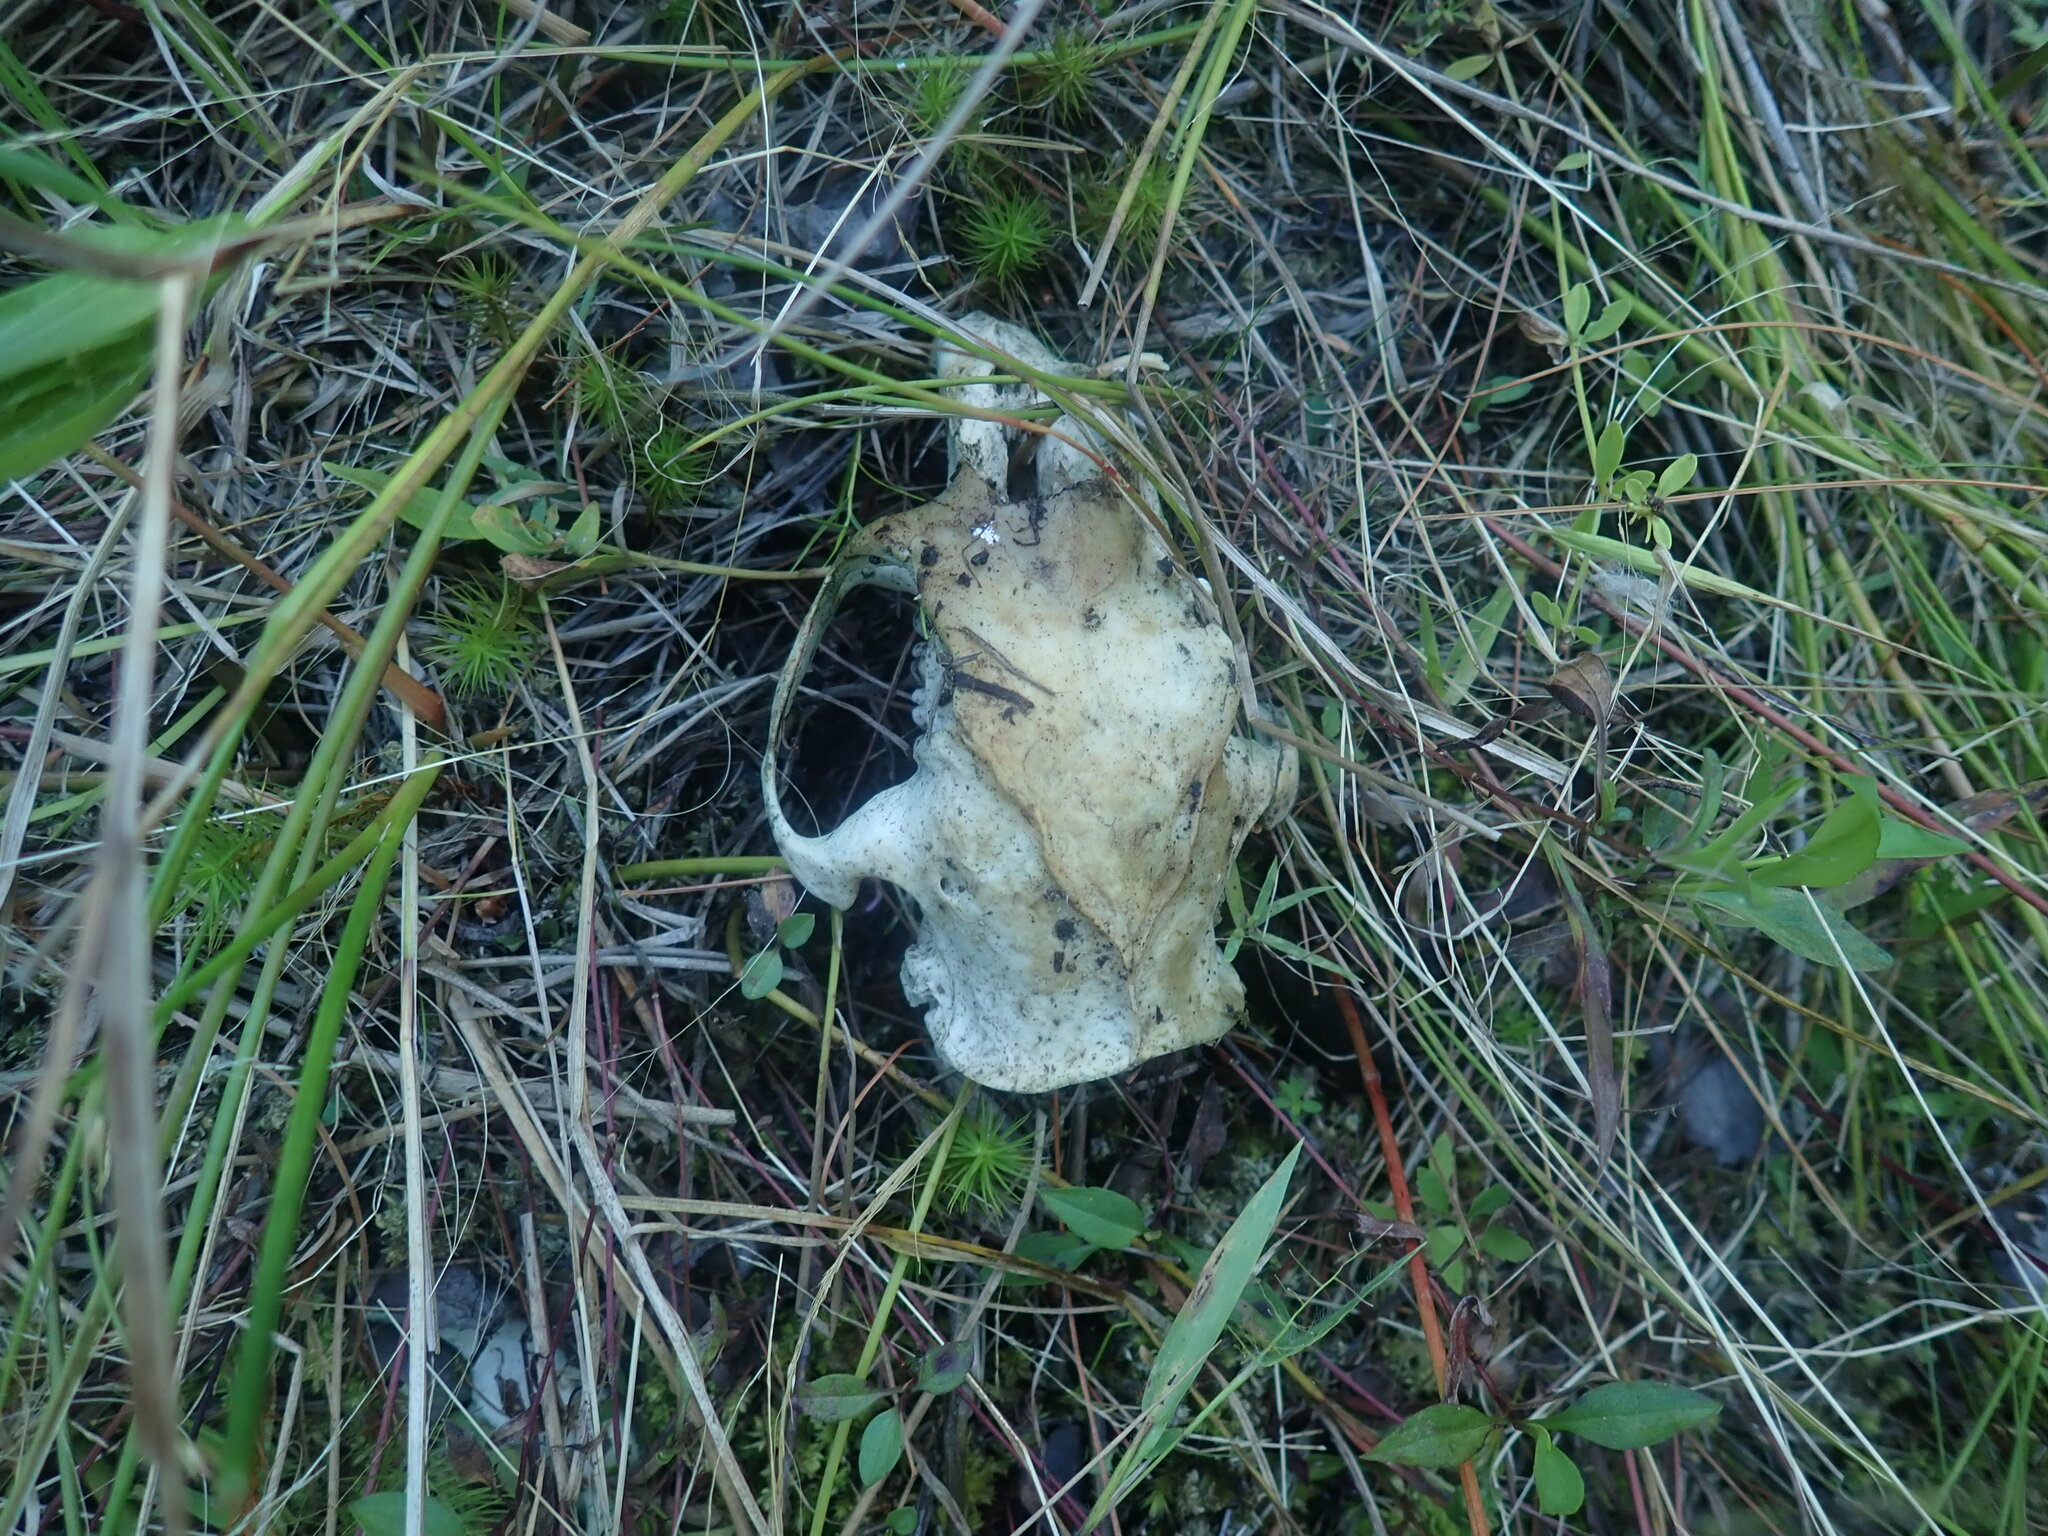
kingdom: Animalia
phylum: Chordata
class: Mammalia
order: Rodentia
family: Erethizontidae
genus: Erethizon
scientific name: Erethizon dorsatus
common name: North american porcupine
